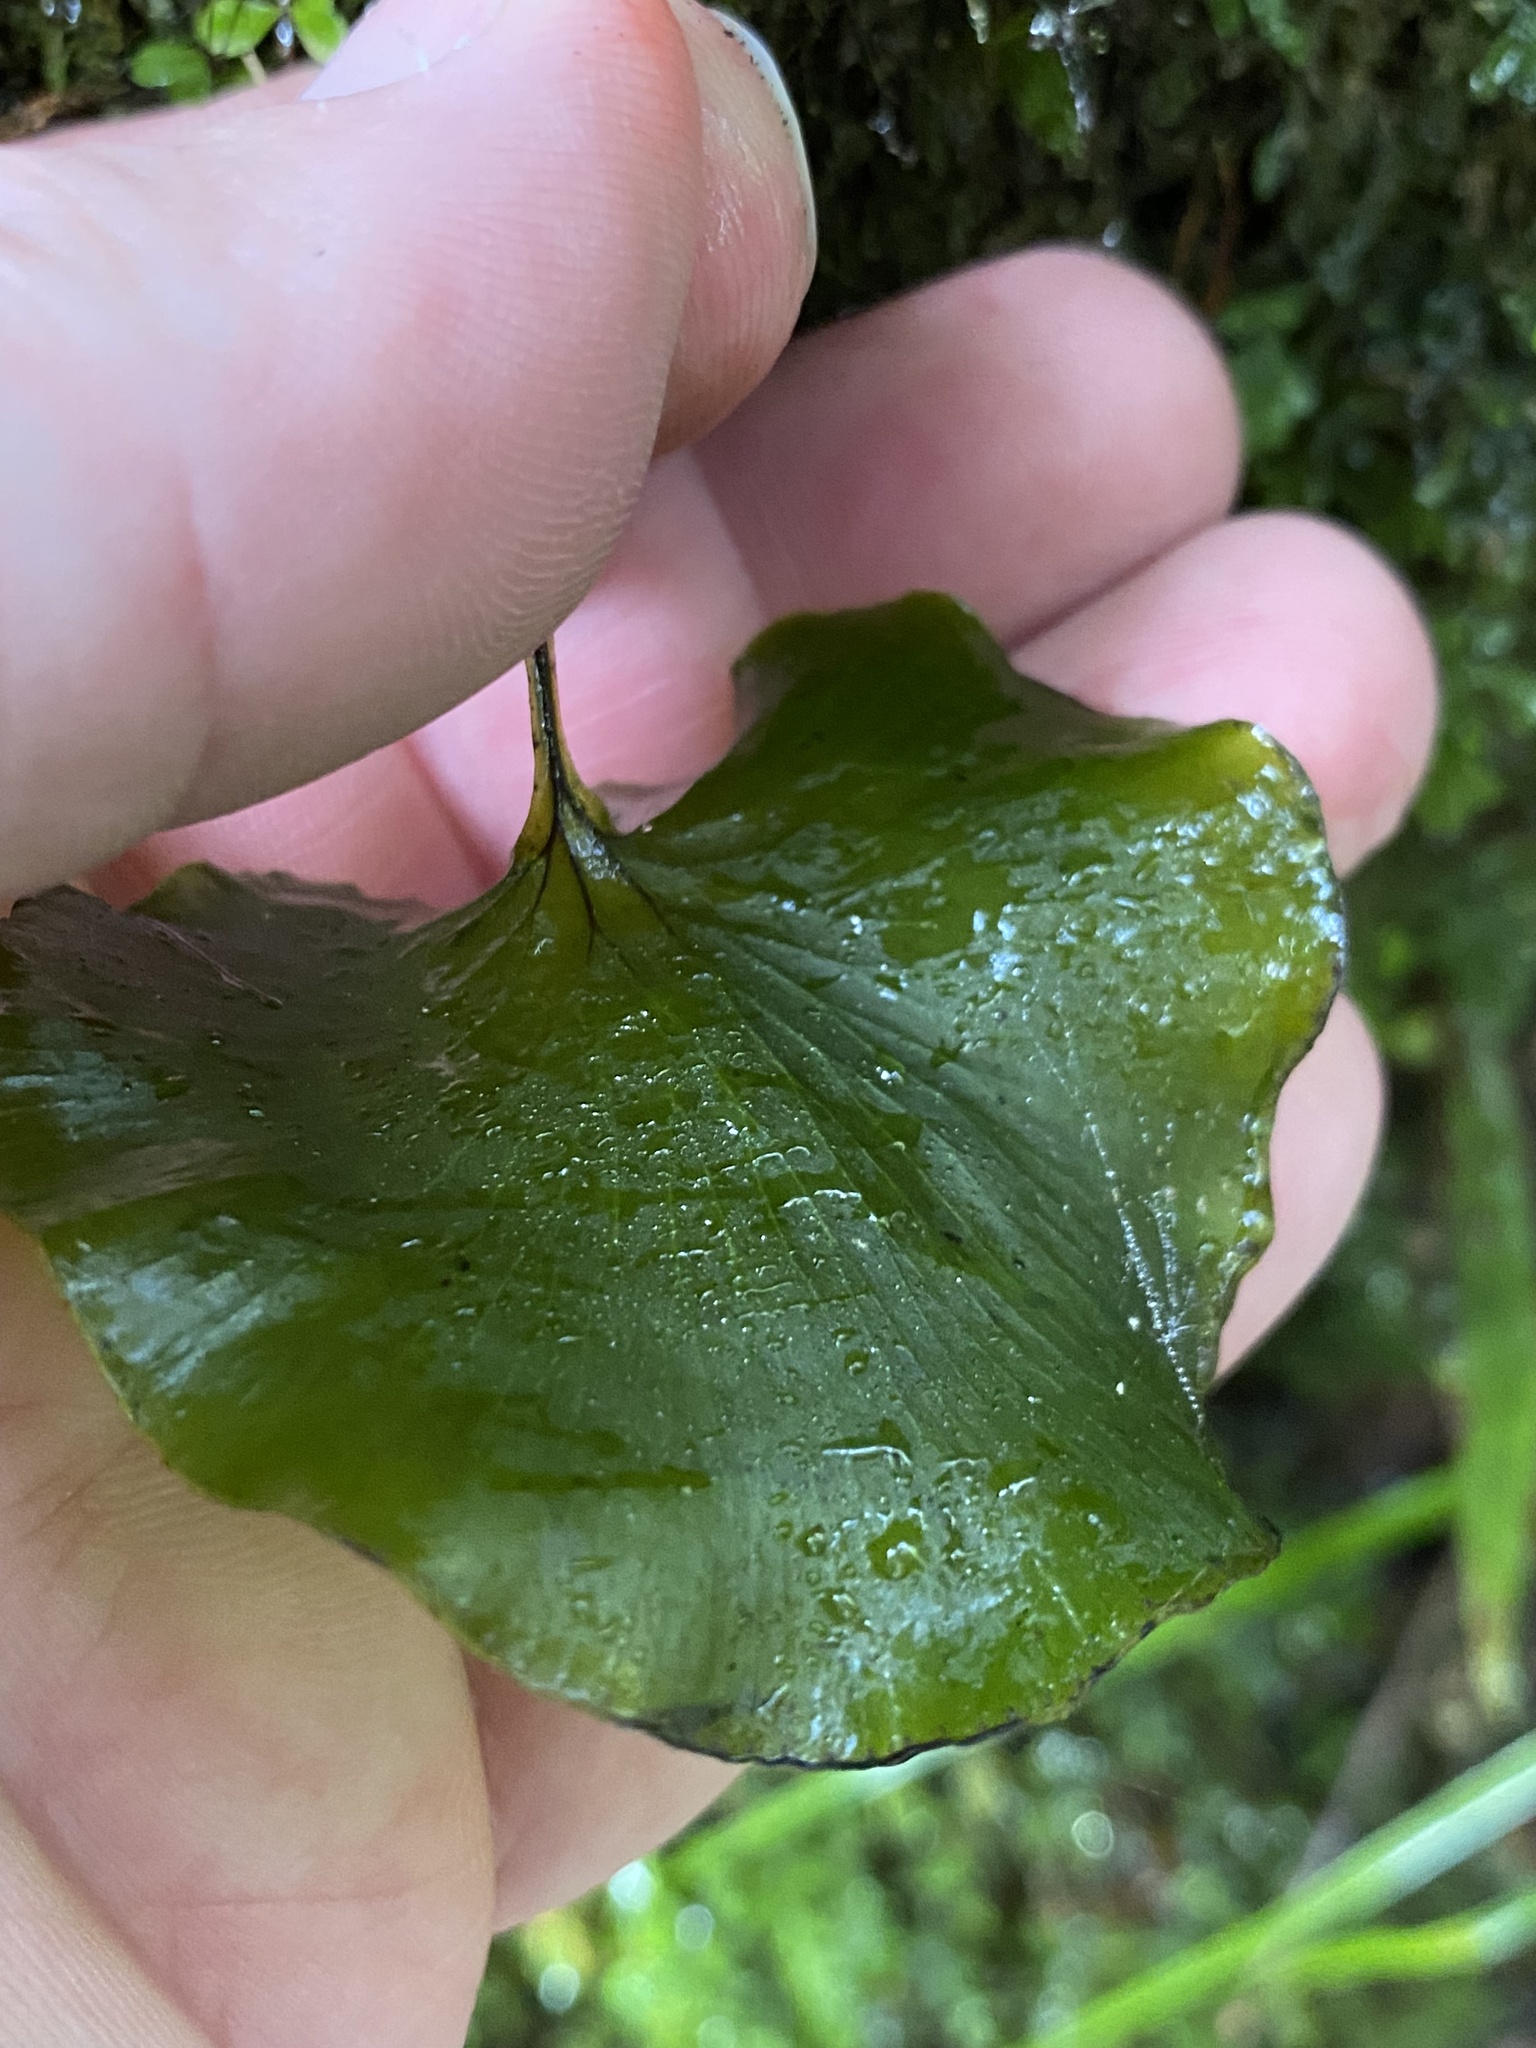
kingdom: Plantae
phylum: Tracheophyta
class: Polypodiopsida
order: Hymenophyllales
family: Hymenophyllaceae
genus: Hymenophyllum
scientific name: Hymenophyllum nephrophyllum
